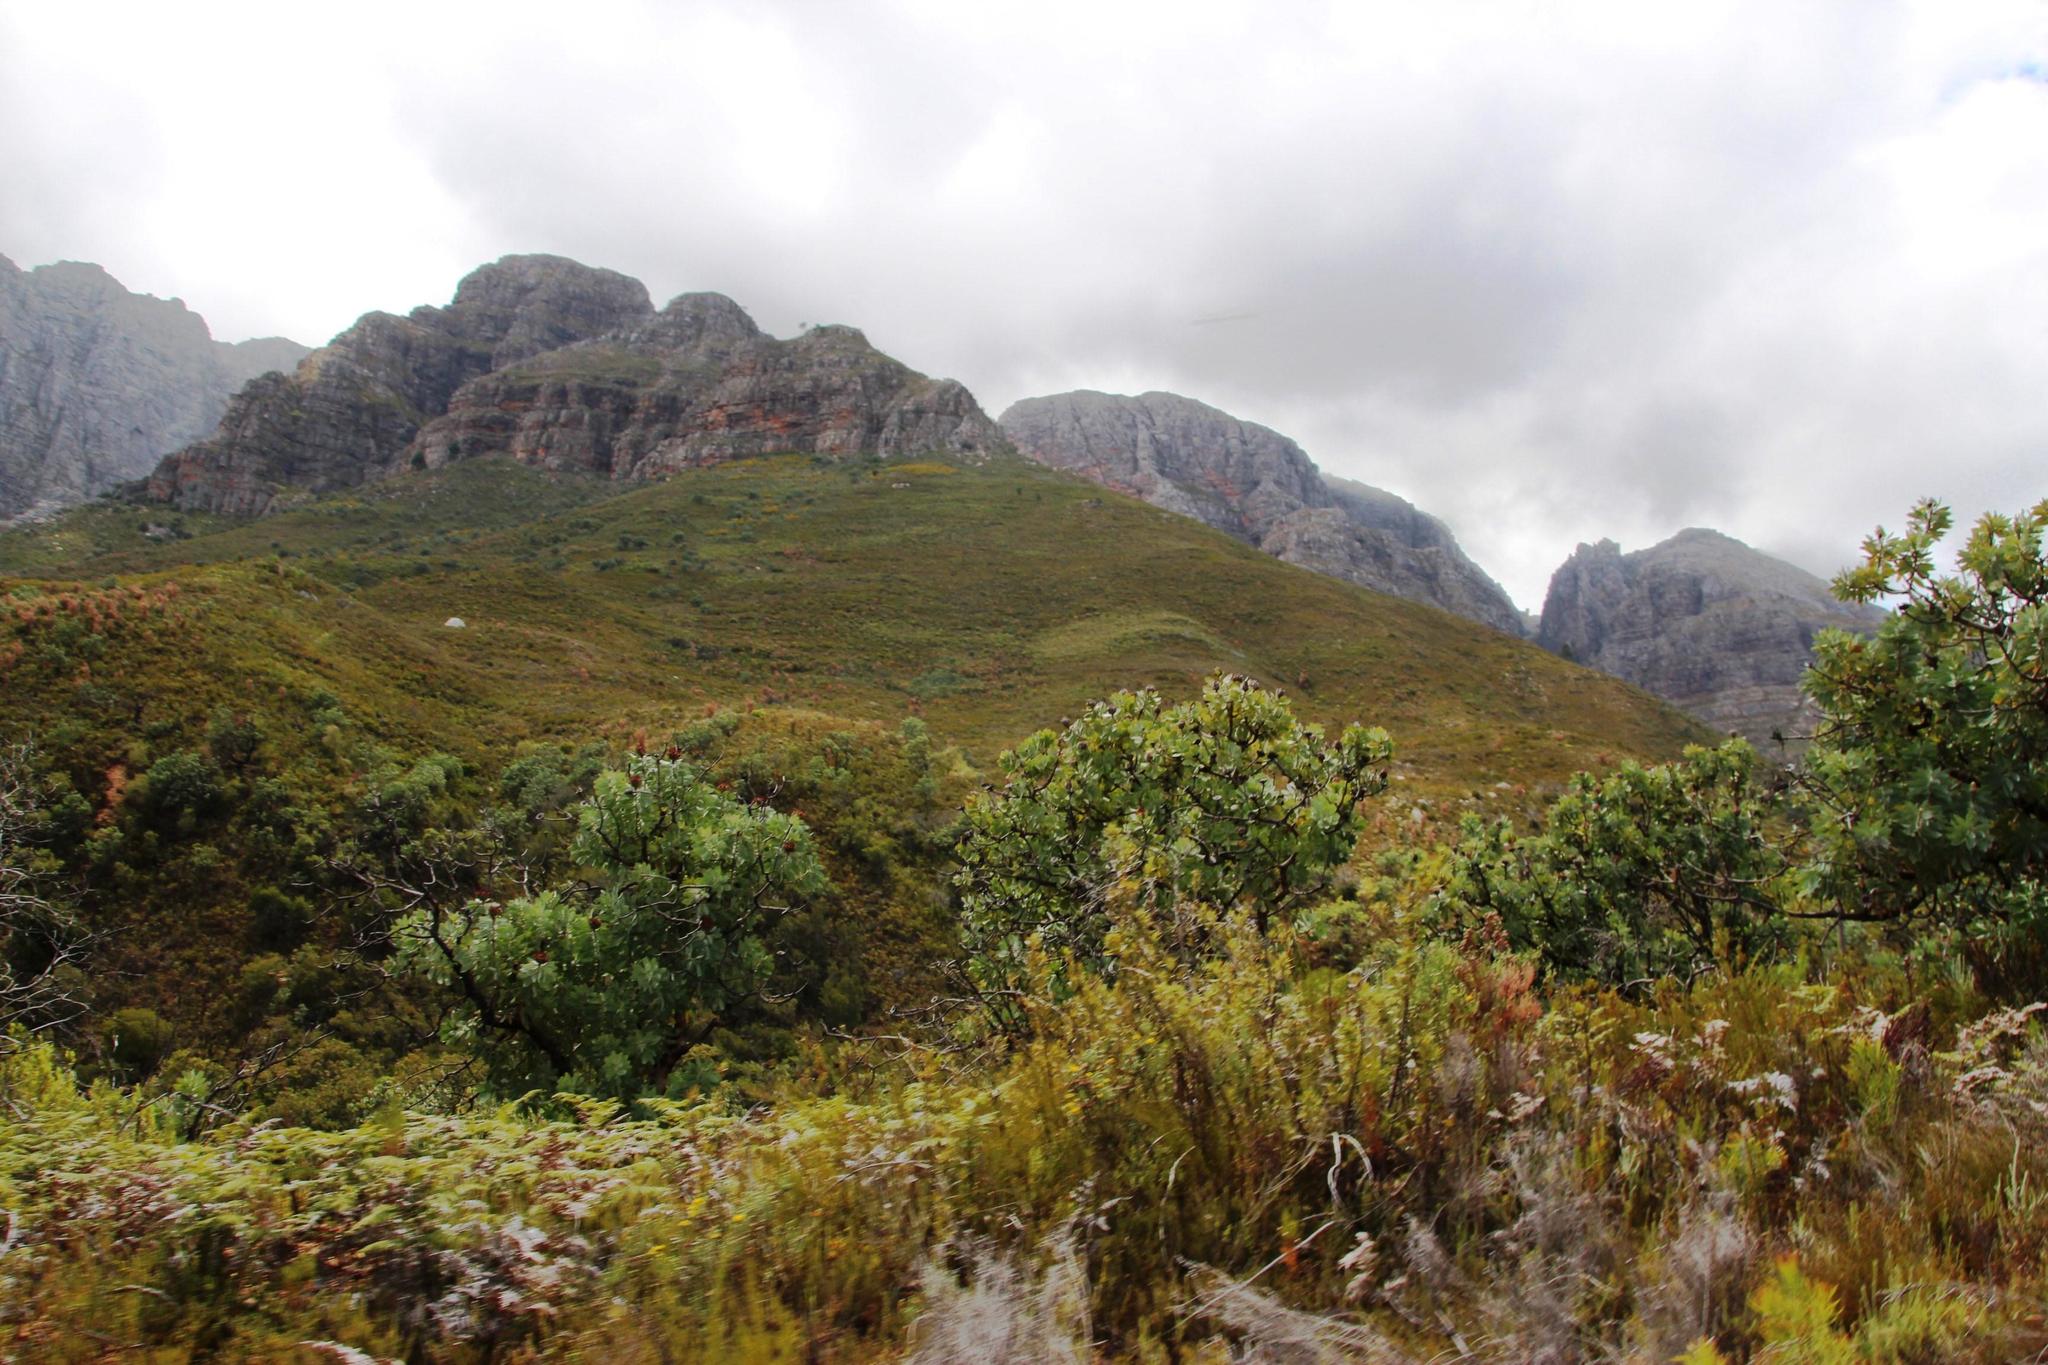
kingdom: Plantae
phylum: Tracheophyta
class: Magnoliopsida
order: Proteales
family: Proteaceae
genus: Protea
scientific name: Protea nitida
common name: Tree protea
